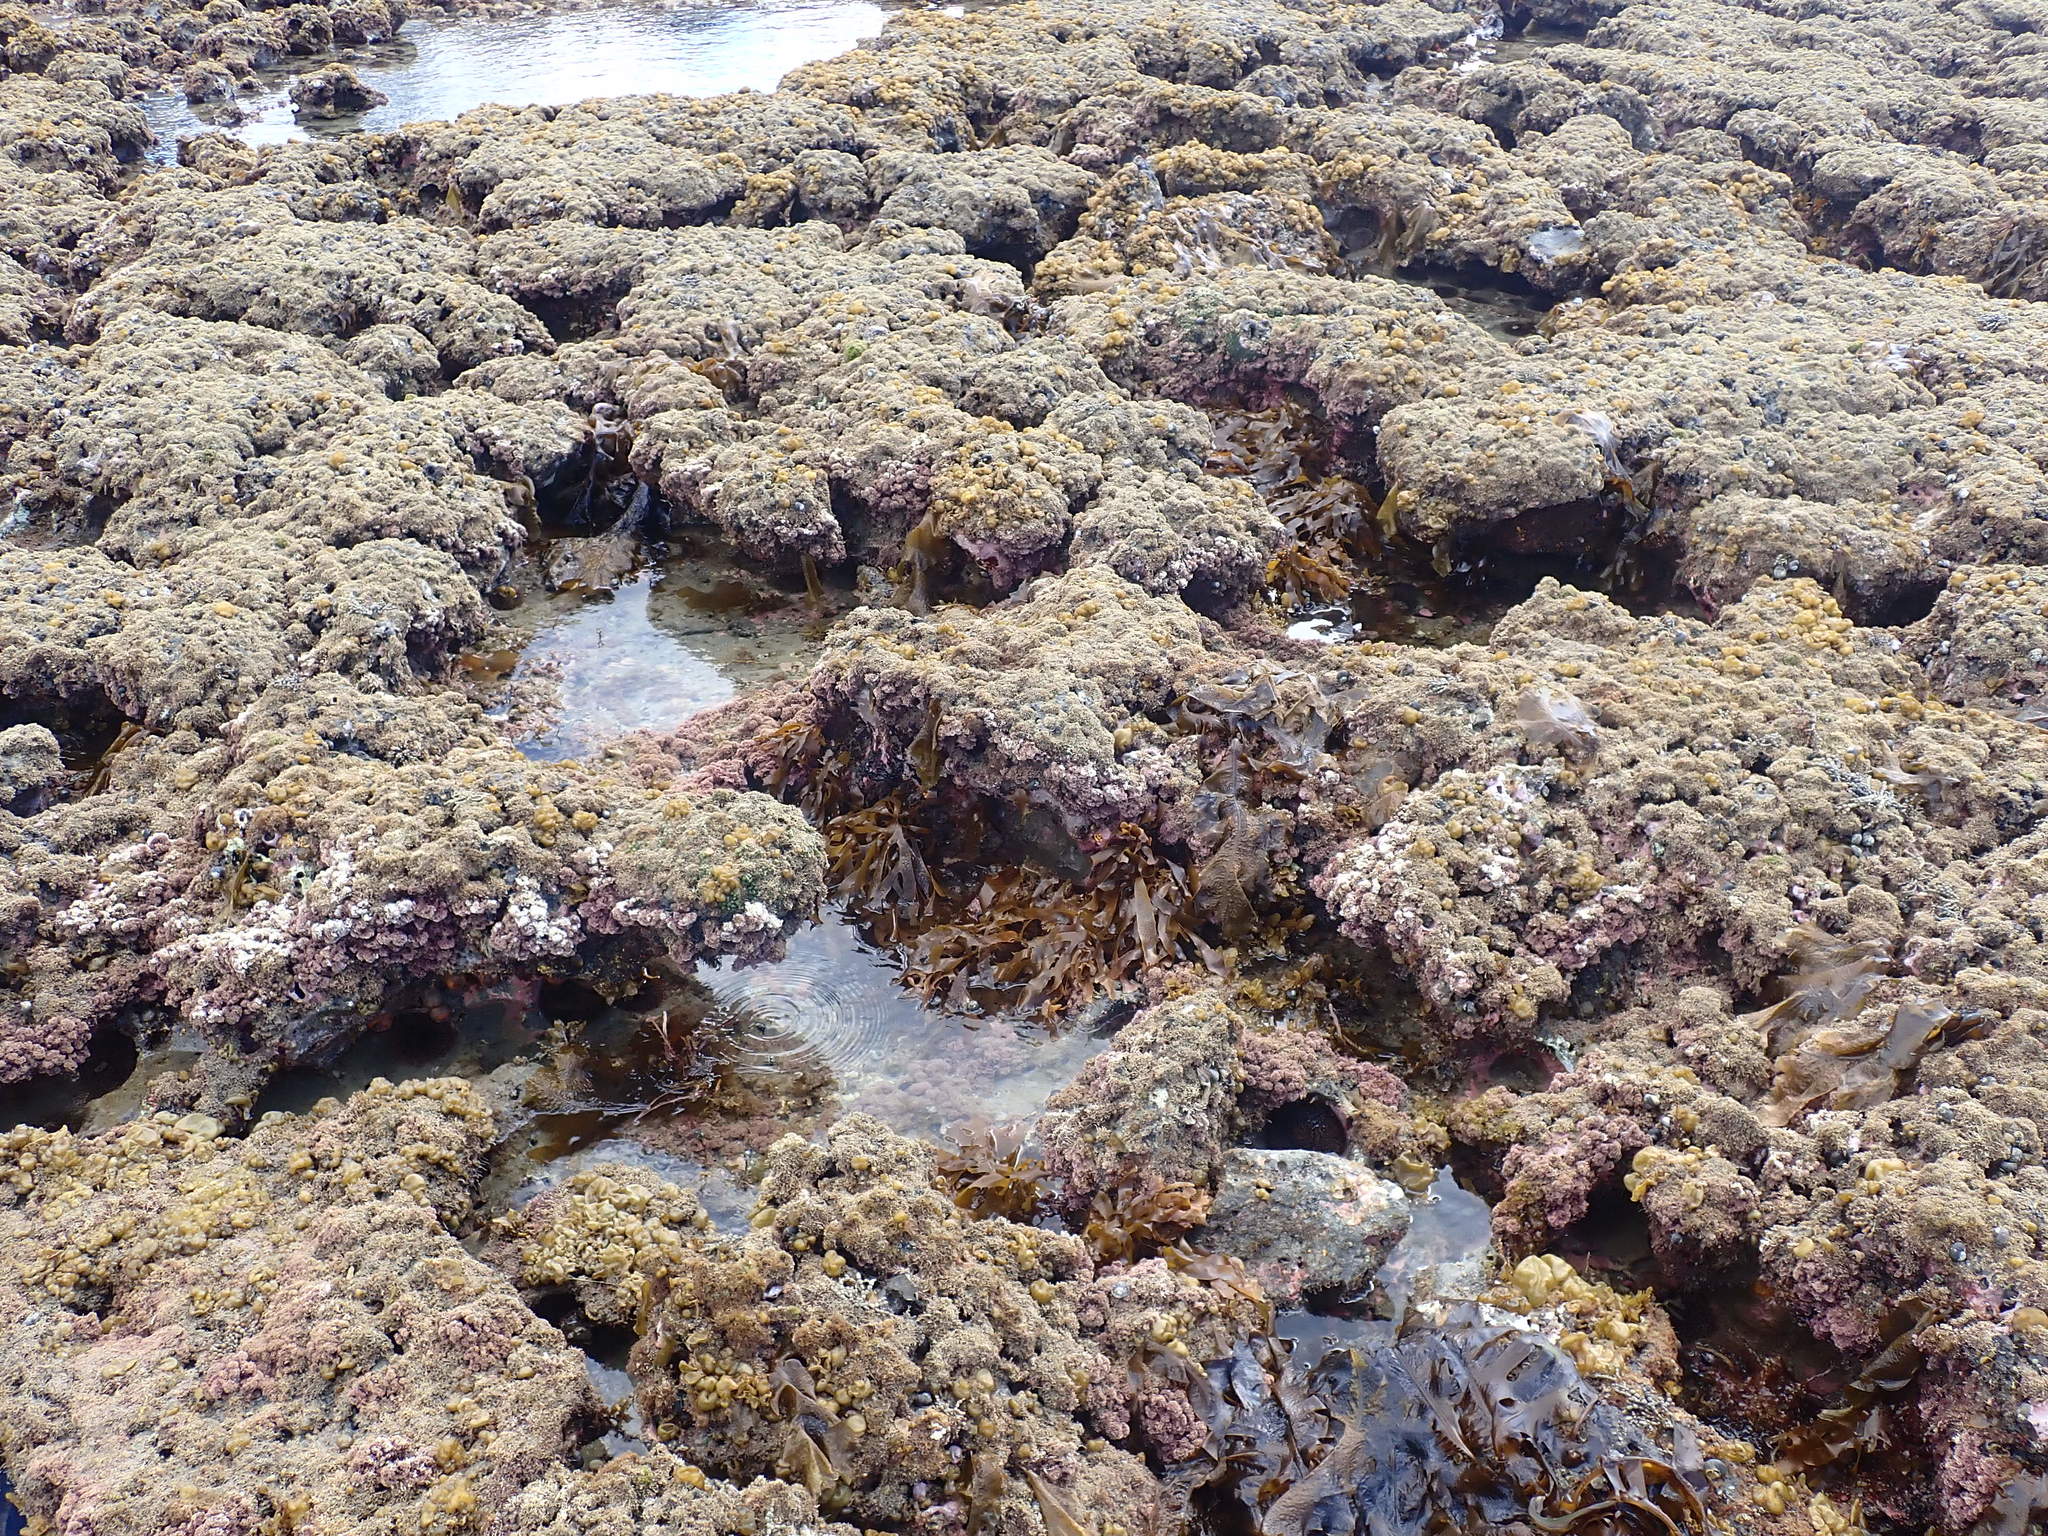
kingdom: Chromista
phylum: Ochrophyta
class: Phaeophyceae
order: Laminariales
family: Lessoniaceae
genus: Ecklonia
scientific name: Ecklonia radiata
